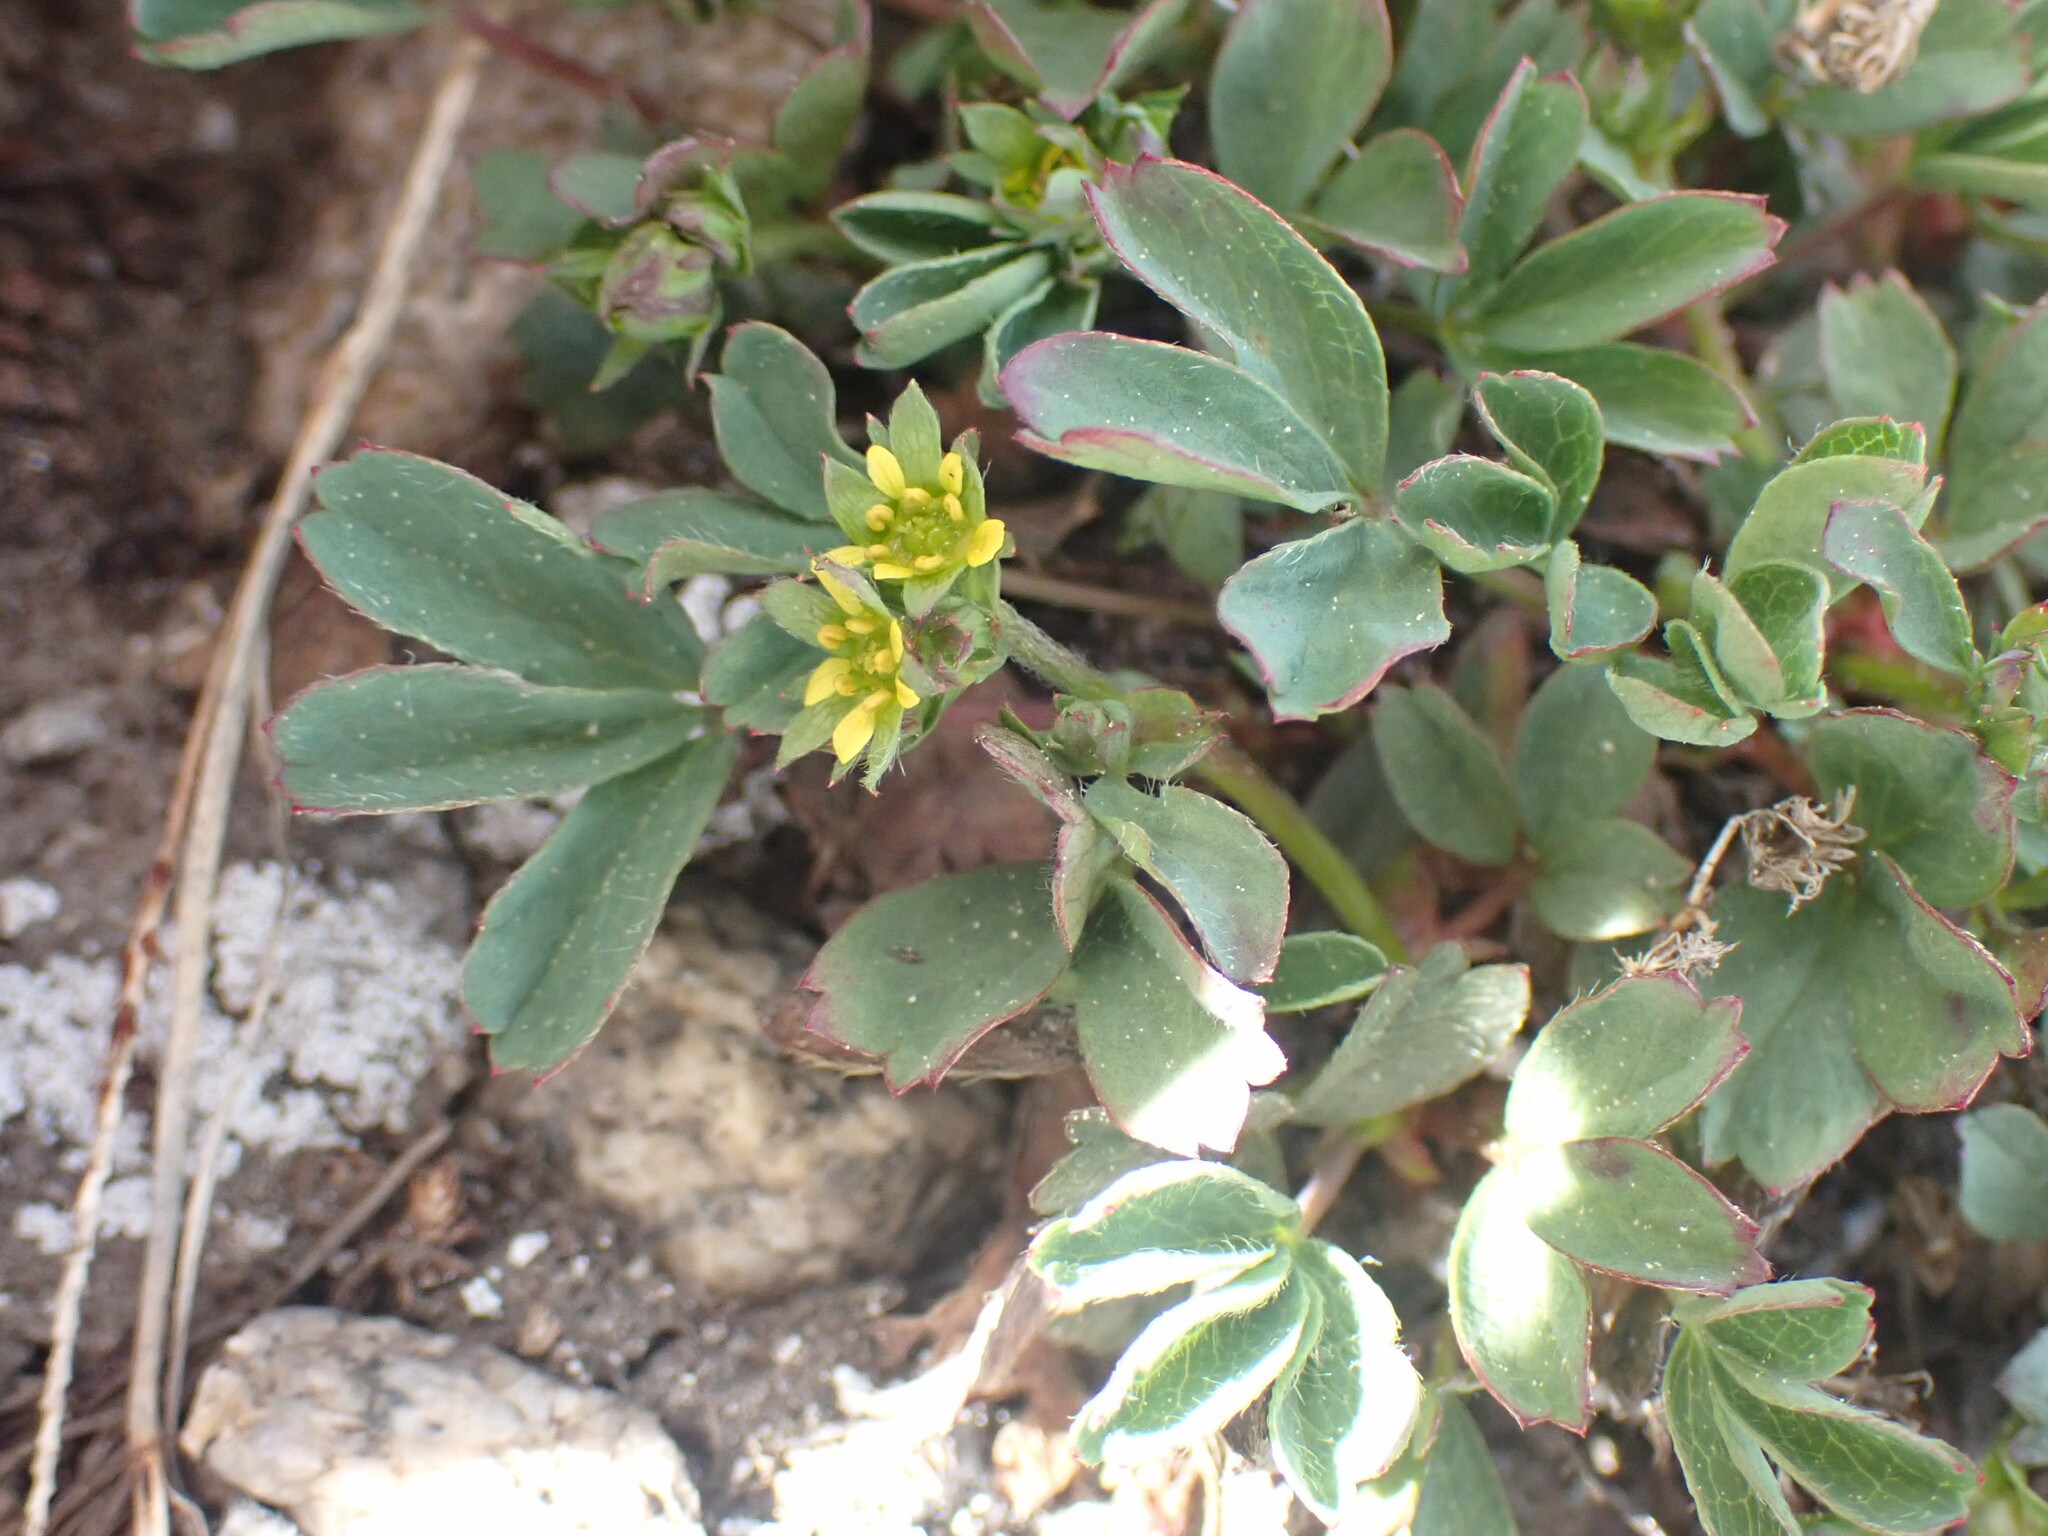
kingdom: Plantae
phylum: Tracheophyta
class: Magnoliopsida
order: Rosales
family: Rosaceae
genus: Sibbaldia
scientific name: Sibbaldia procumbens
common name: Creeping sibbaldia
